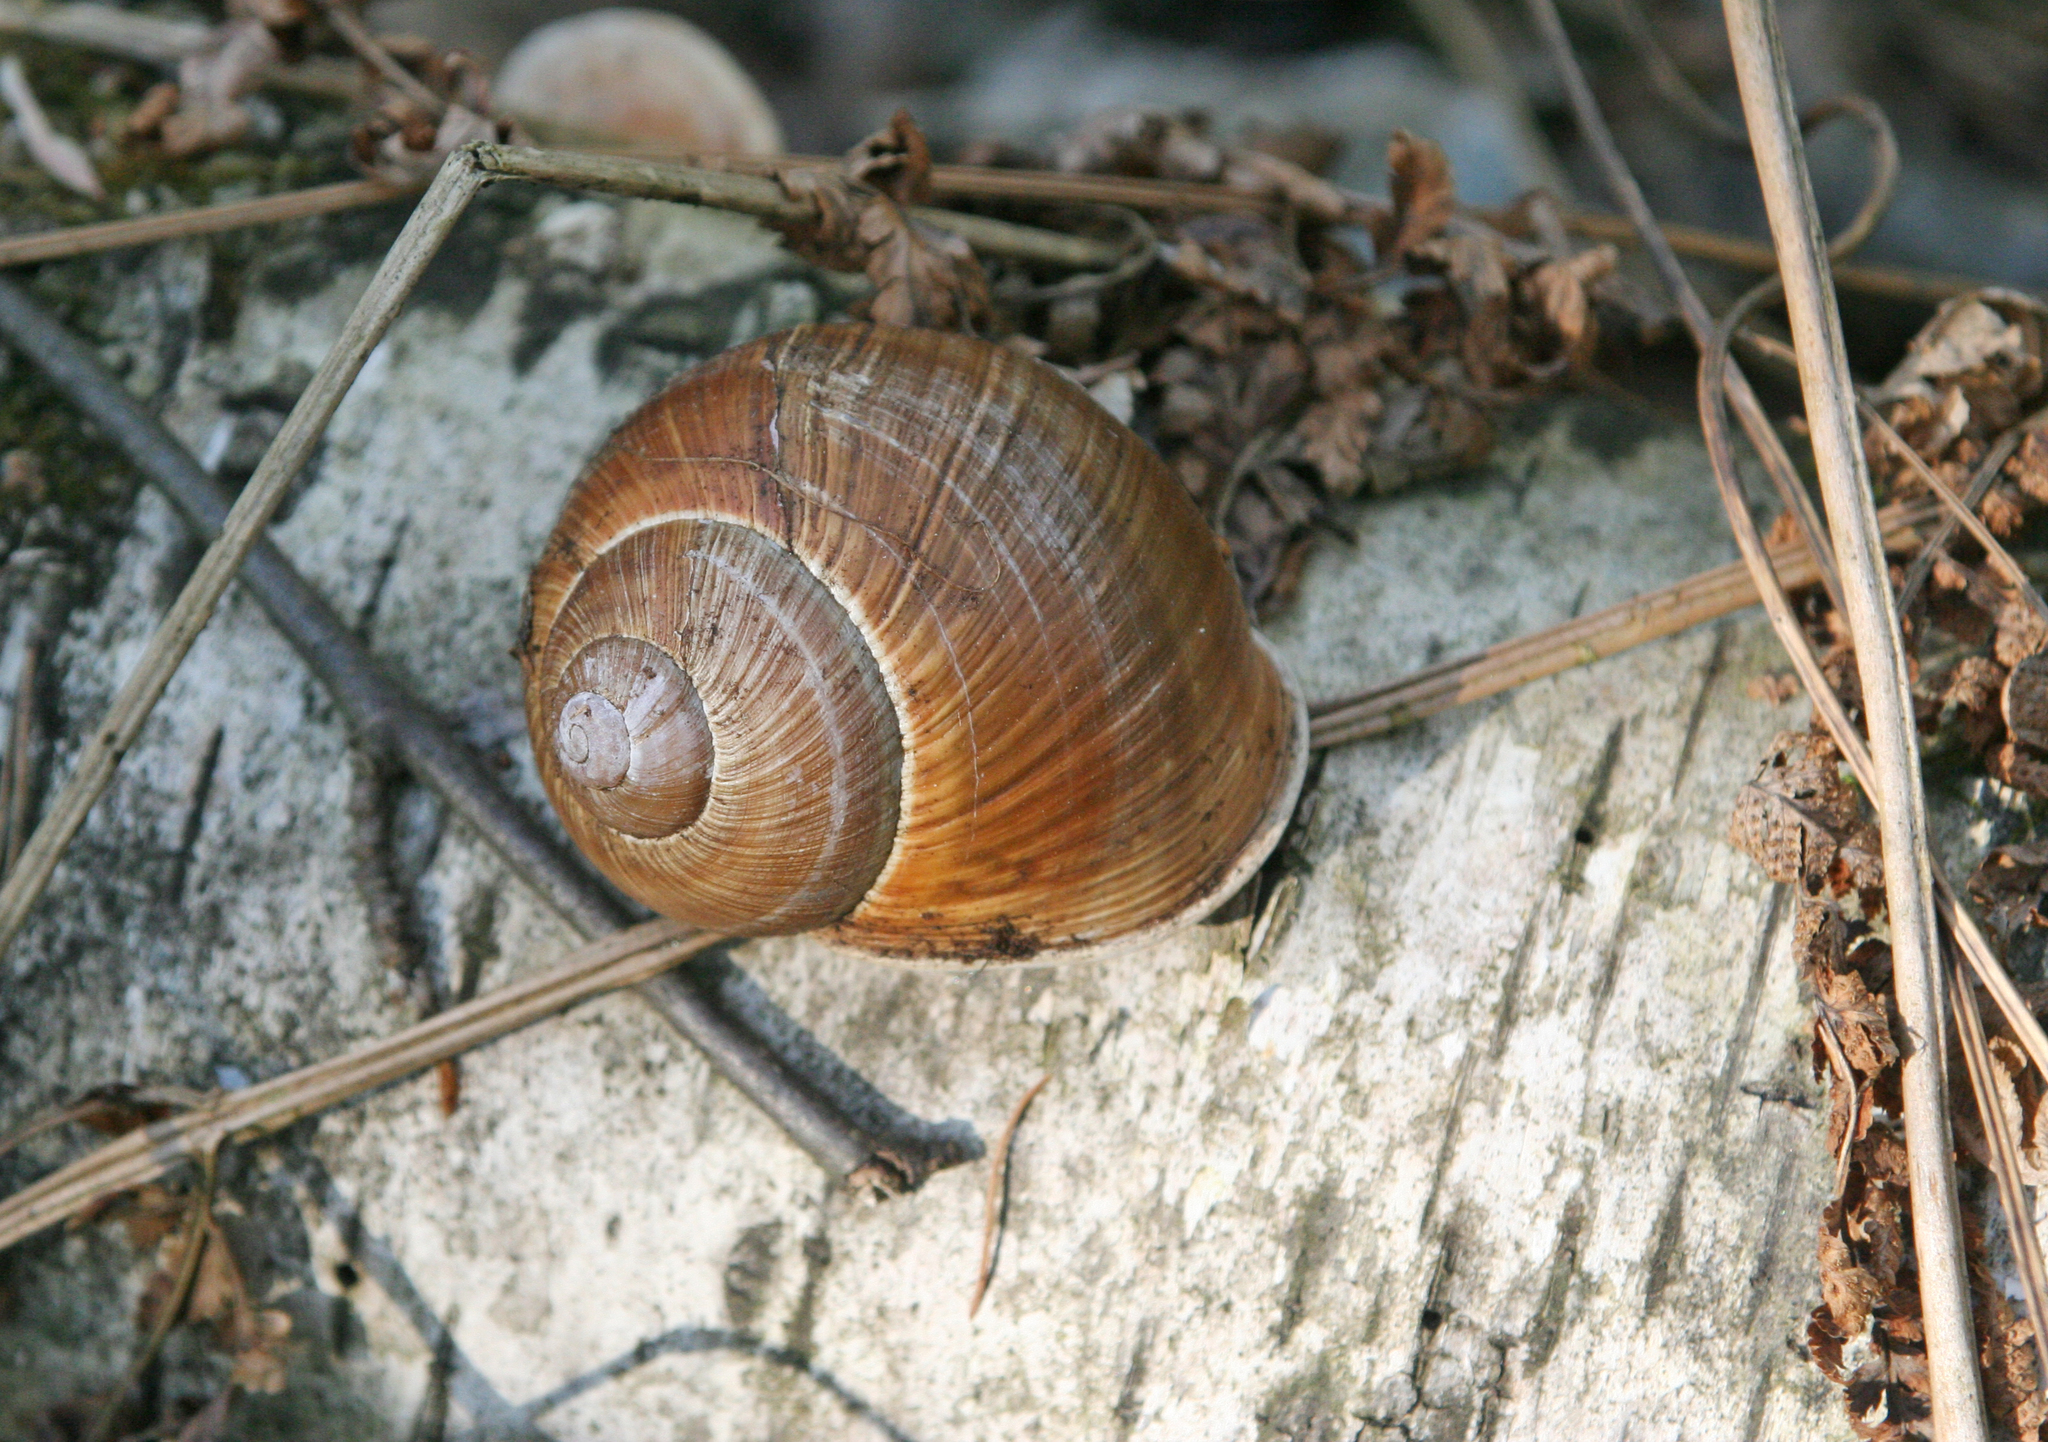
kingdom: Animalia
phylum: Mollusca
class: Gastropoda
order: Stylommatophora
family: Helicidae
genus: Helix
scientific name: Helix pomatia
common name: Roman snail
